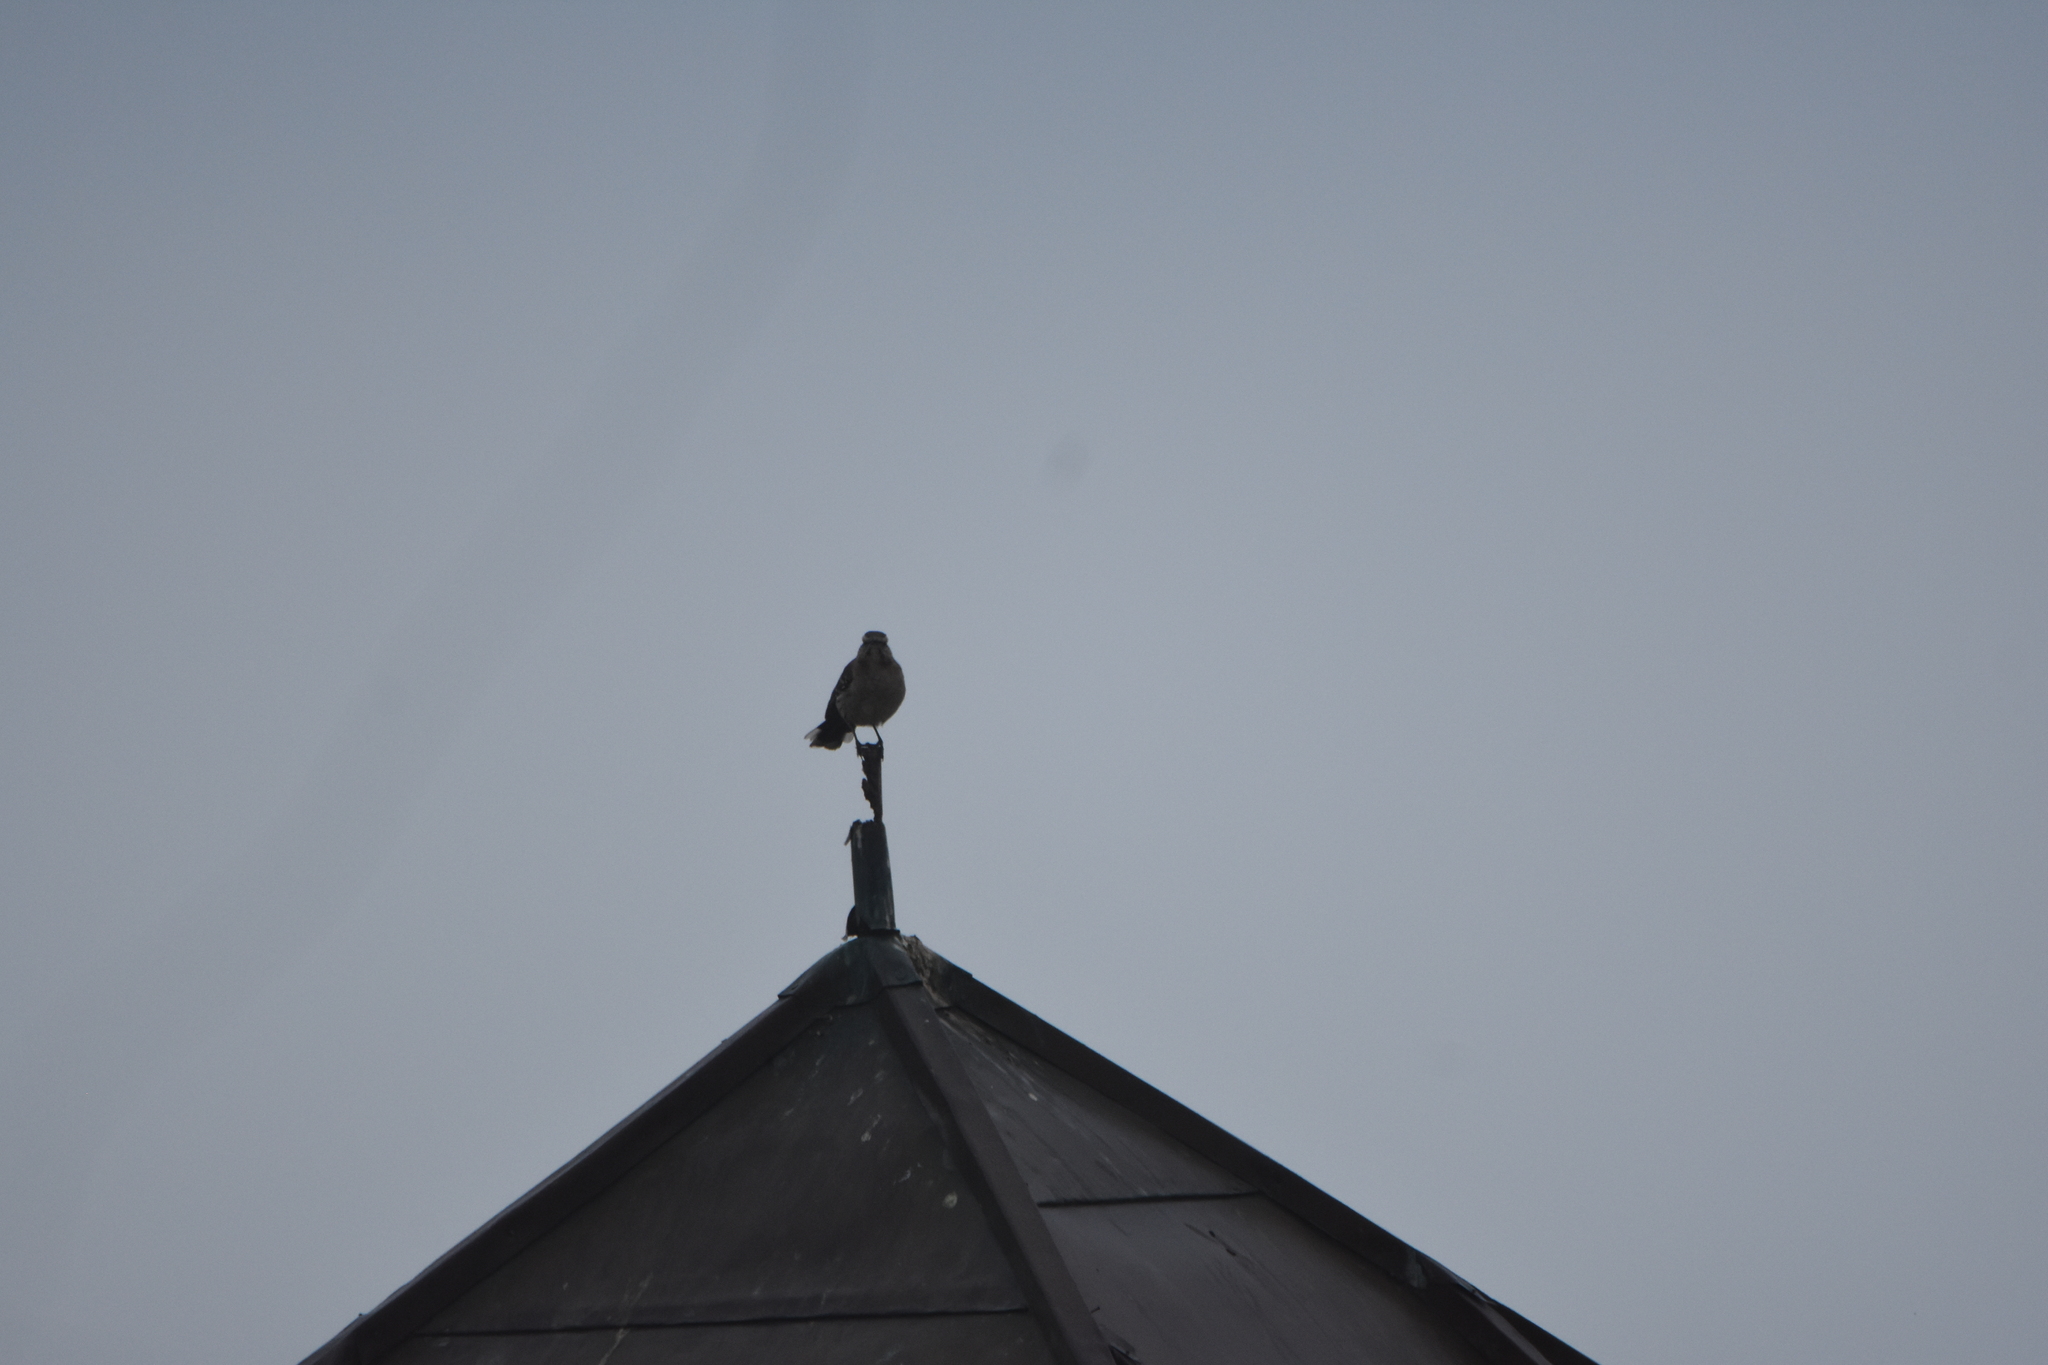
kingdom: Animalia
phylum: Chordata
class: Aves
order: Passeriformes
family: Mimidae
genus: Mimus
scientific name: Mimus thenca
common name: Chilean mockingbird
